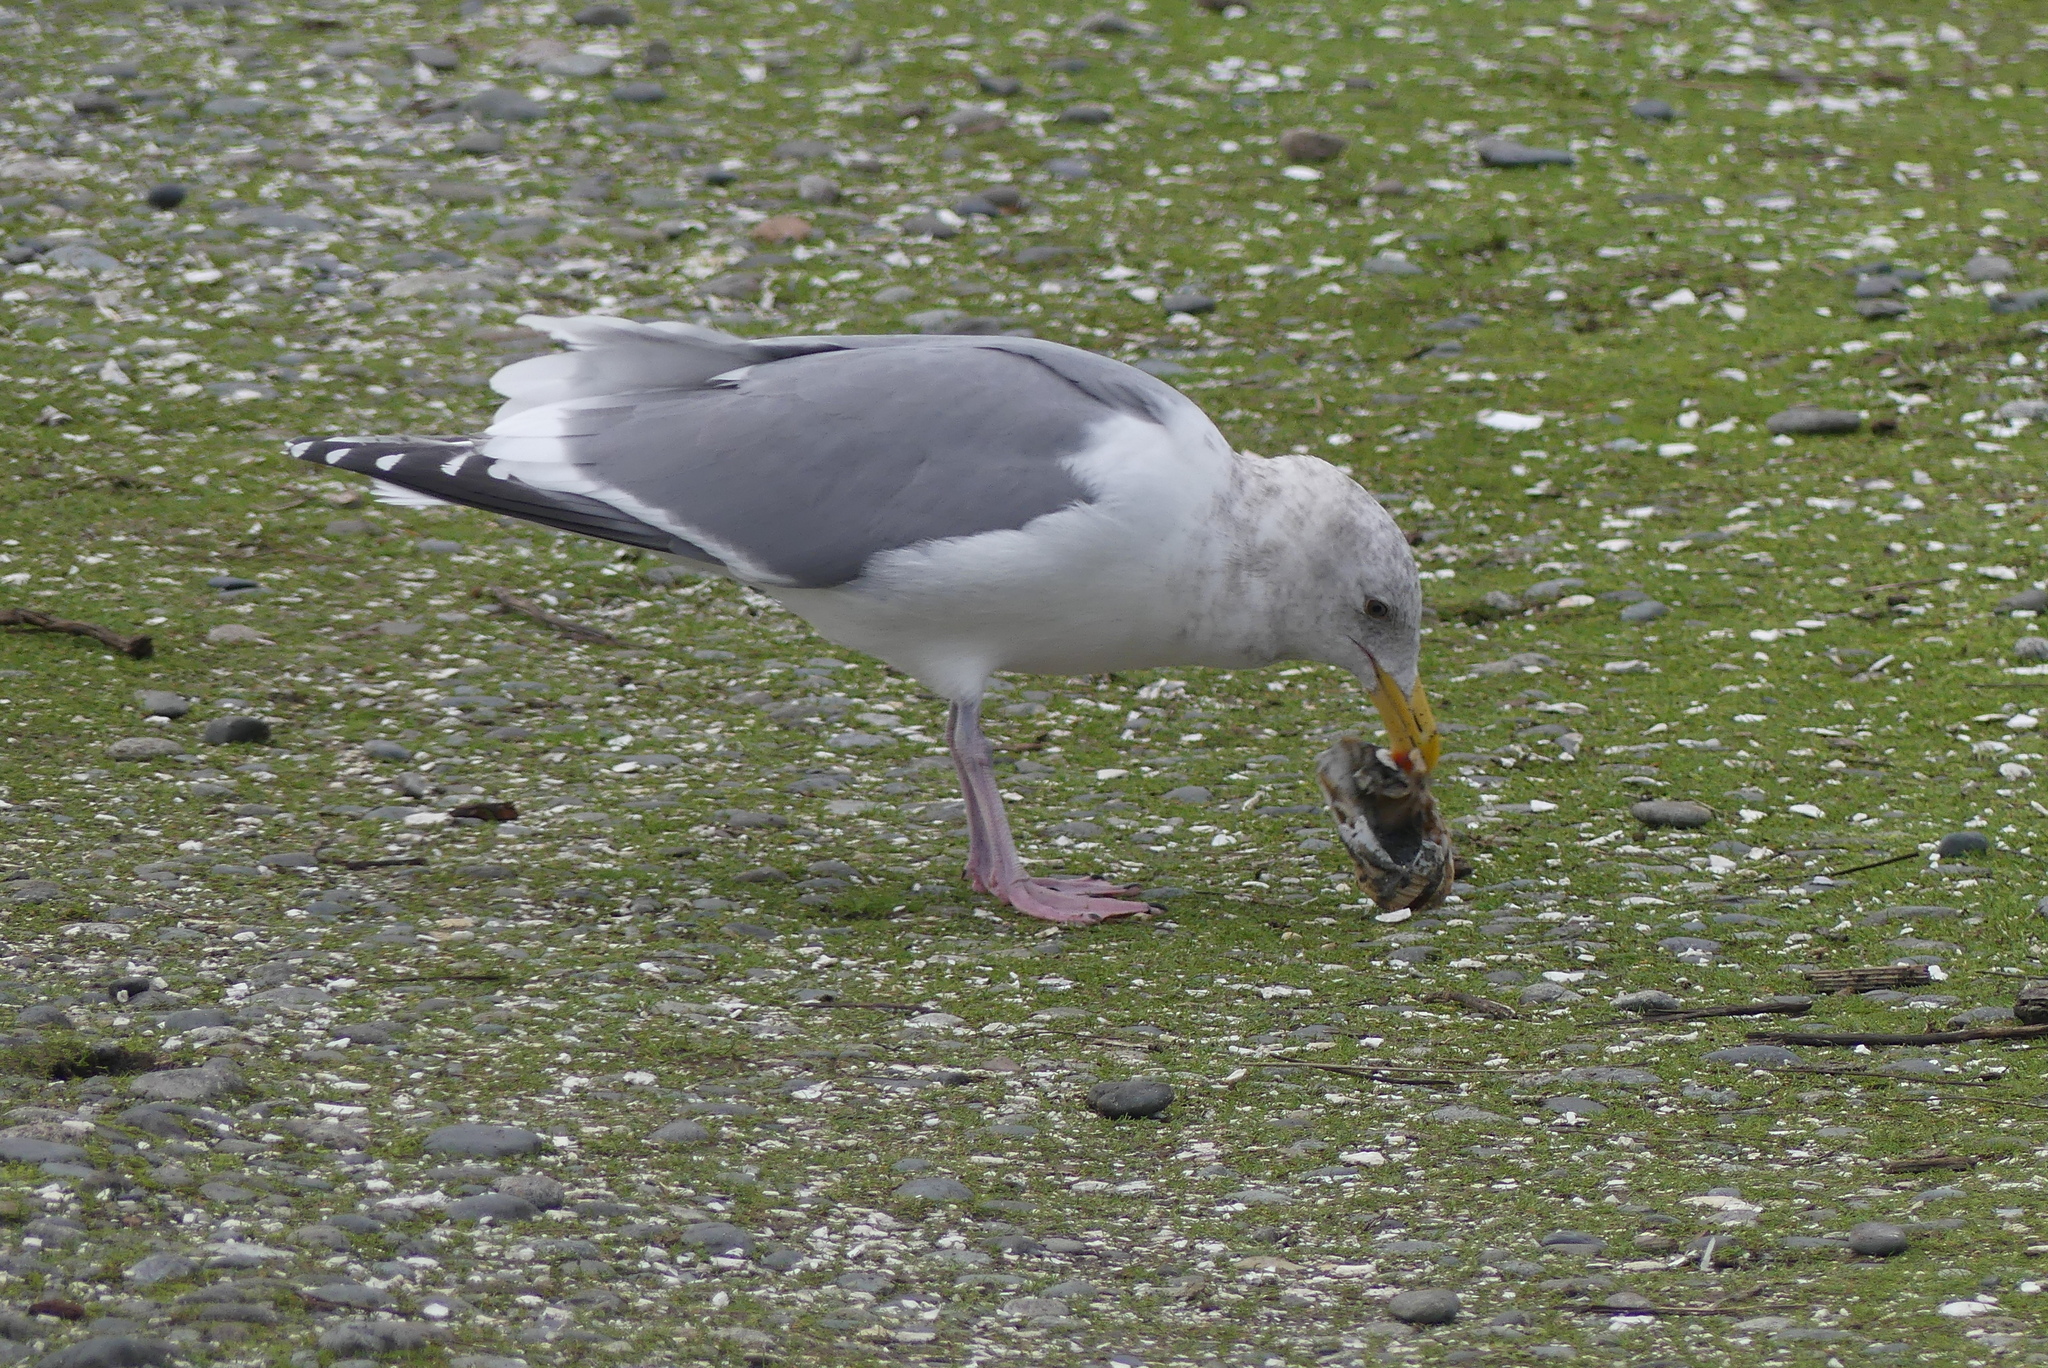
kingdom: Animalia
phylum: Chordata
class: Aves
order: Charadriiformes
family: Laridae
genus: Larus
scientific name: Larus
